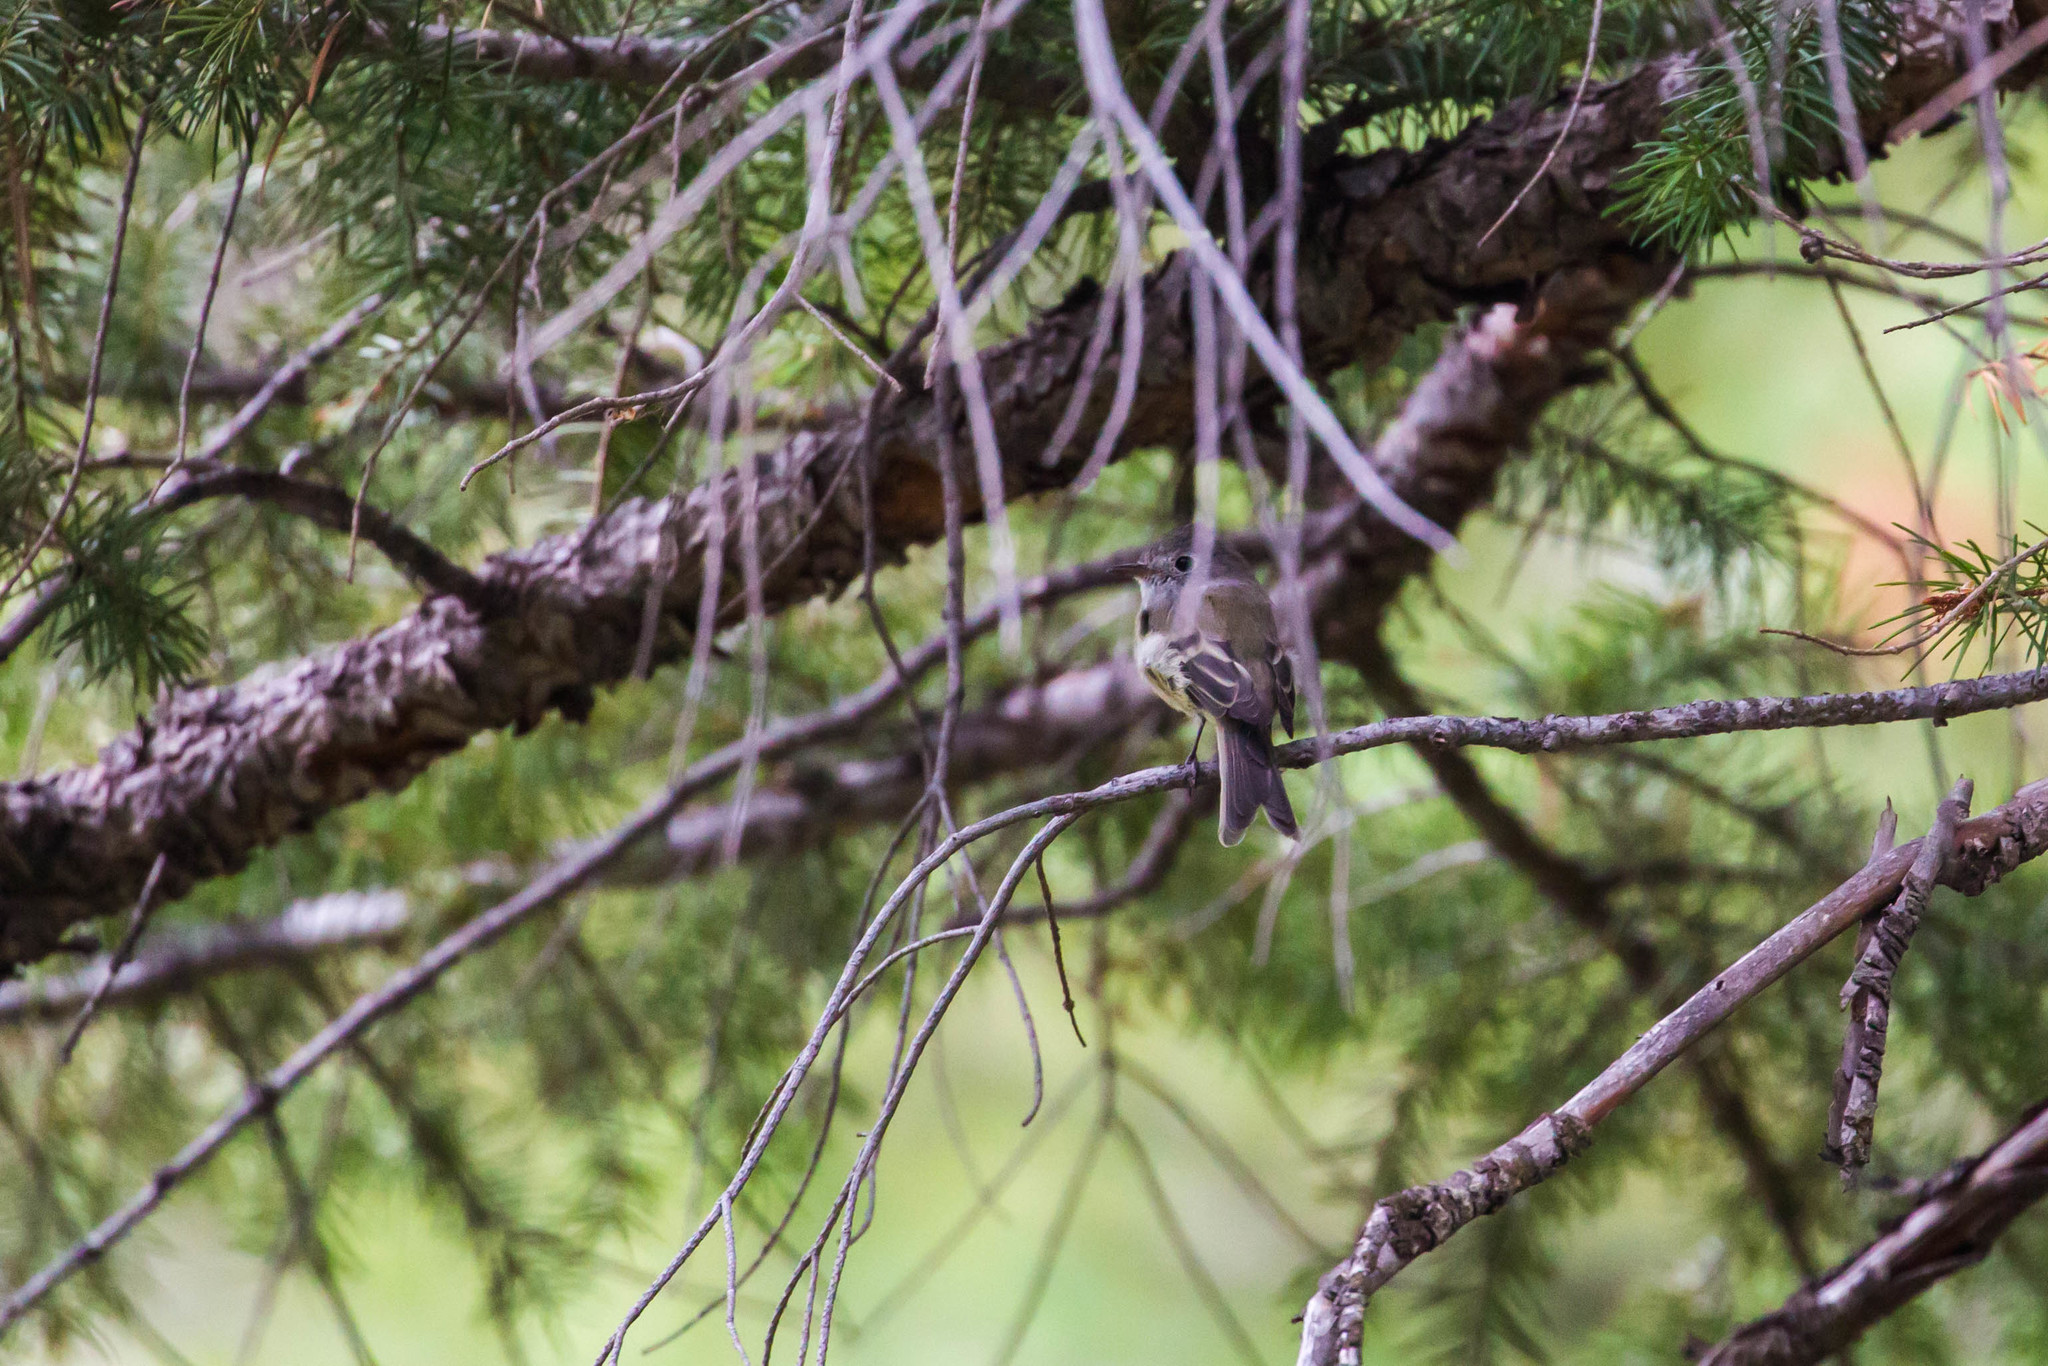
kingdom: Animalia
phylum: Chordata
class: Aves
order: Passeriformes
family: Tyrannidae
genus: Empidonax
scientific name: Empidonax difficilis
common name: Pacific-slope flycatcher
